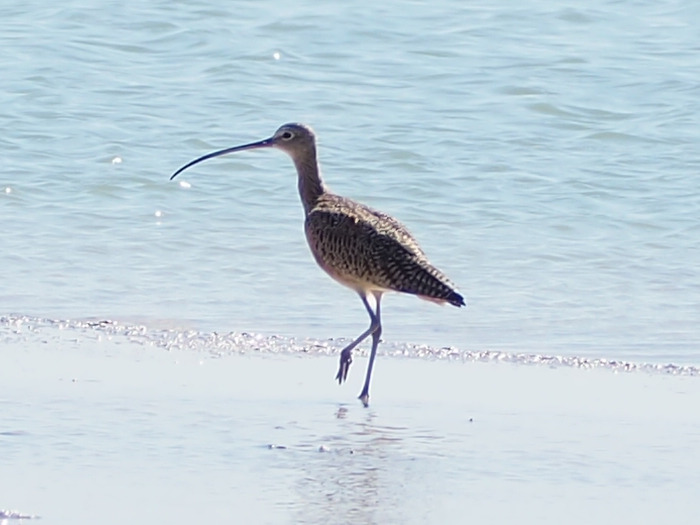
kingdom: Animalia
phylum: Chordata
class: Aves
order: Charadriiformes
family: Scolopacidae
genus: Numenius
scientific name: Numenius americanus
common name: Long-billed curlew
